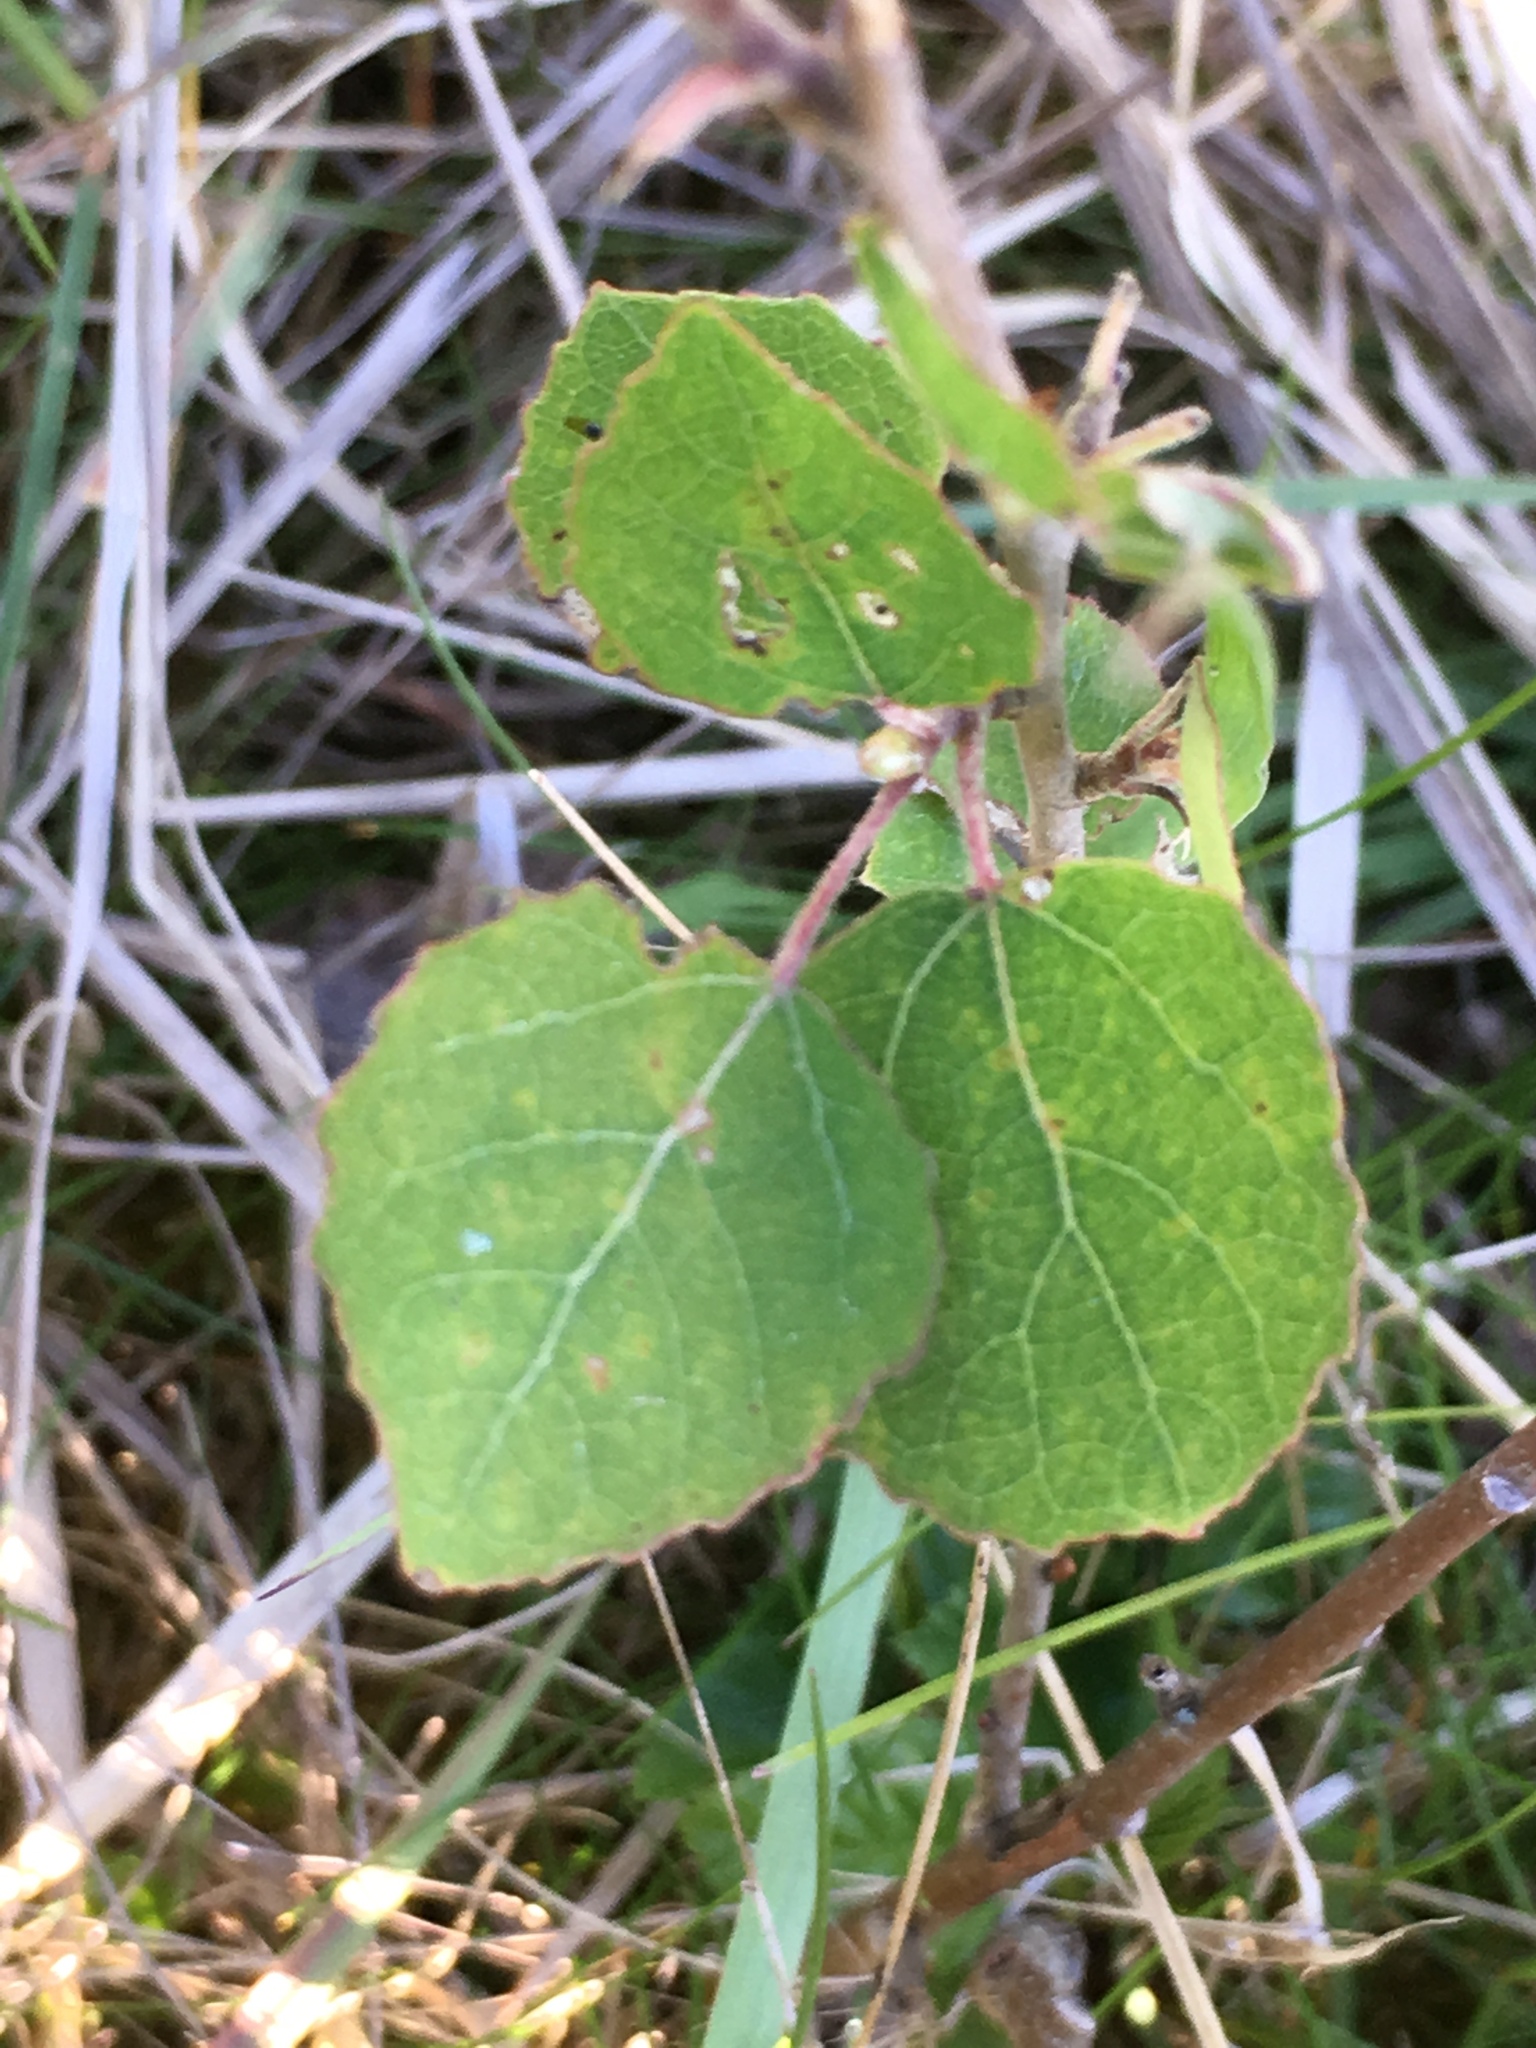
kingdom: Plantae
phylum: Tracheophyta
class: Magnoliopsida
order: Malpighiales
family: Salicaceae
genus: Populus
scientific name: Populus tremula
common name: European aspen
